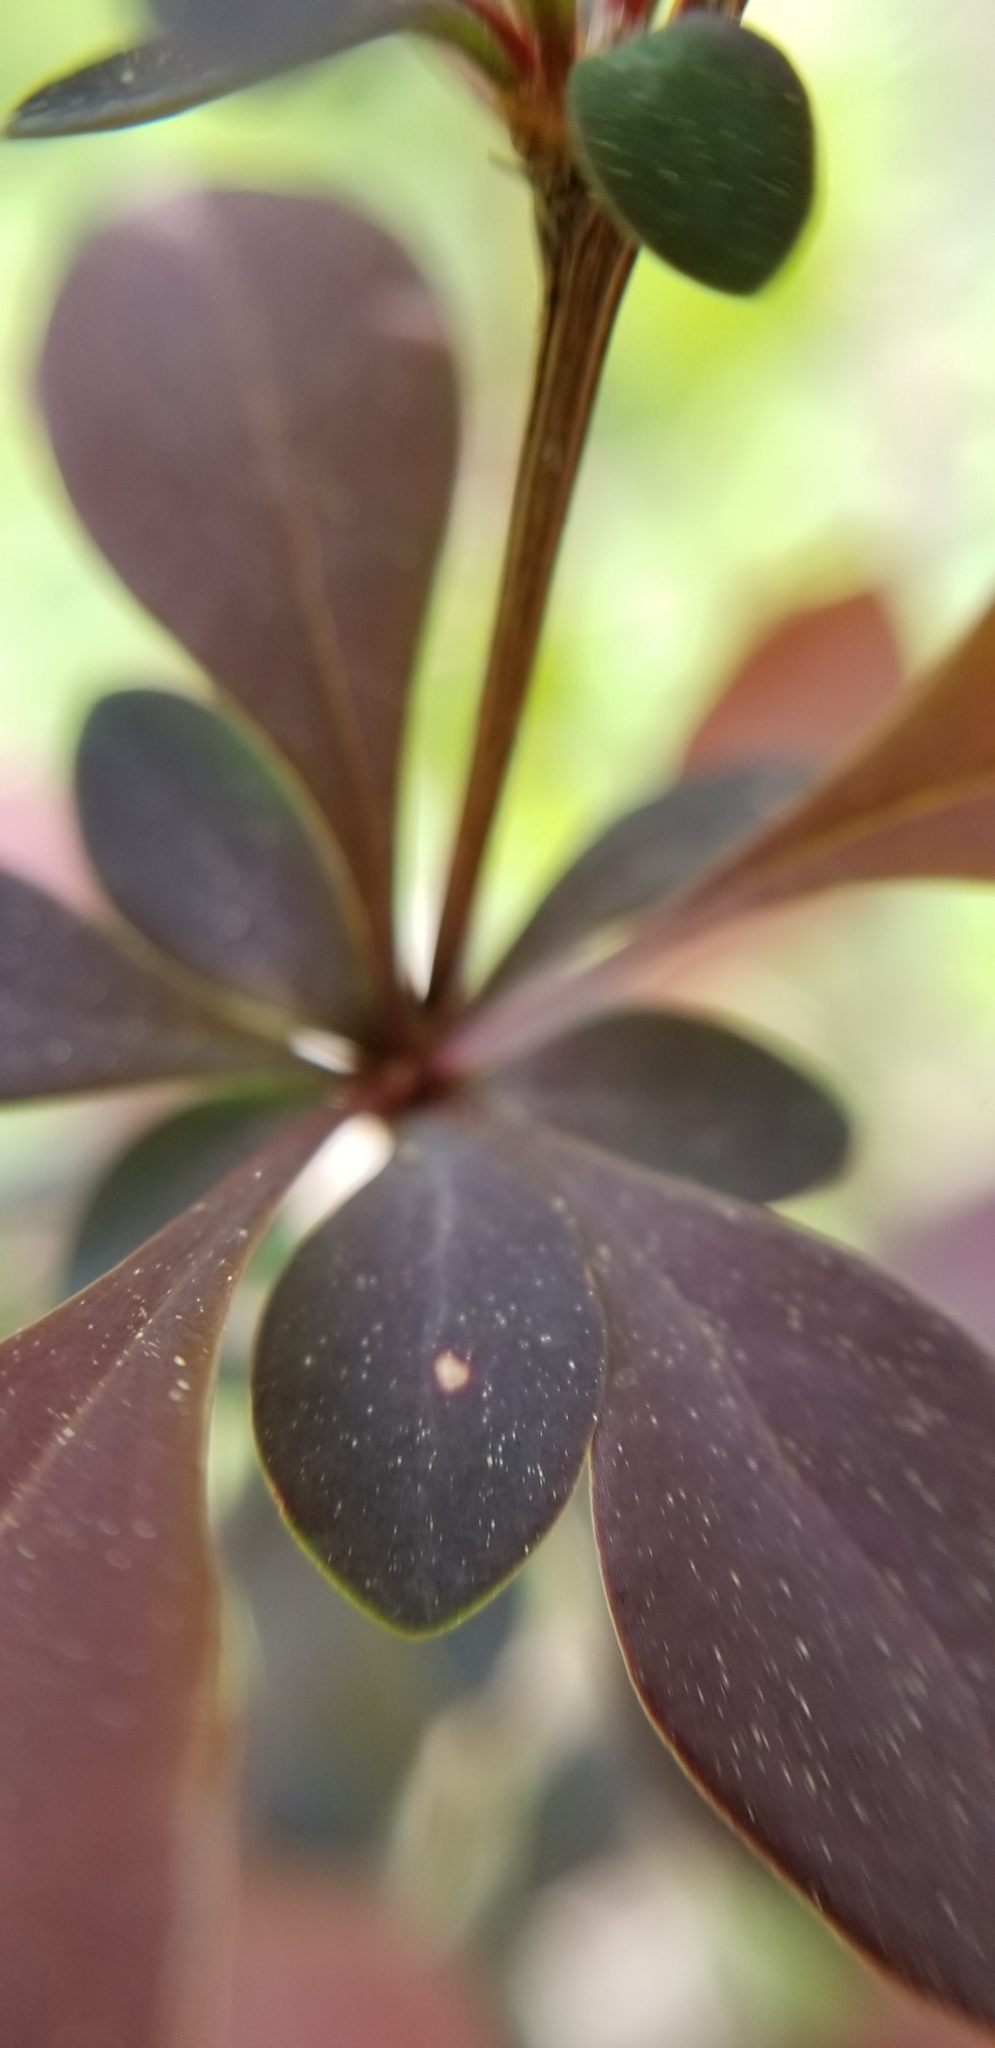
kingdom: Plantae
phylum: Tracheophyta
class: Magnoliopsida
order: Ranunculales
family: Berberidaceae
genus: Berberis
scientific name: Berberis thunbergii
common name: Japanese barberry
